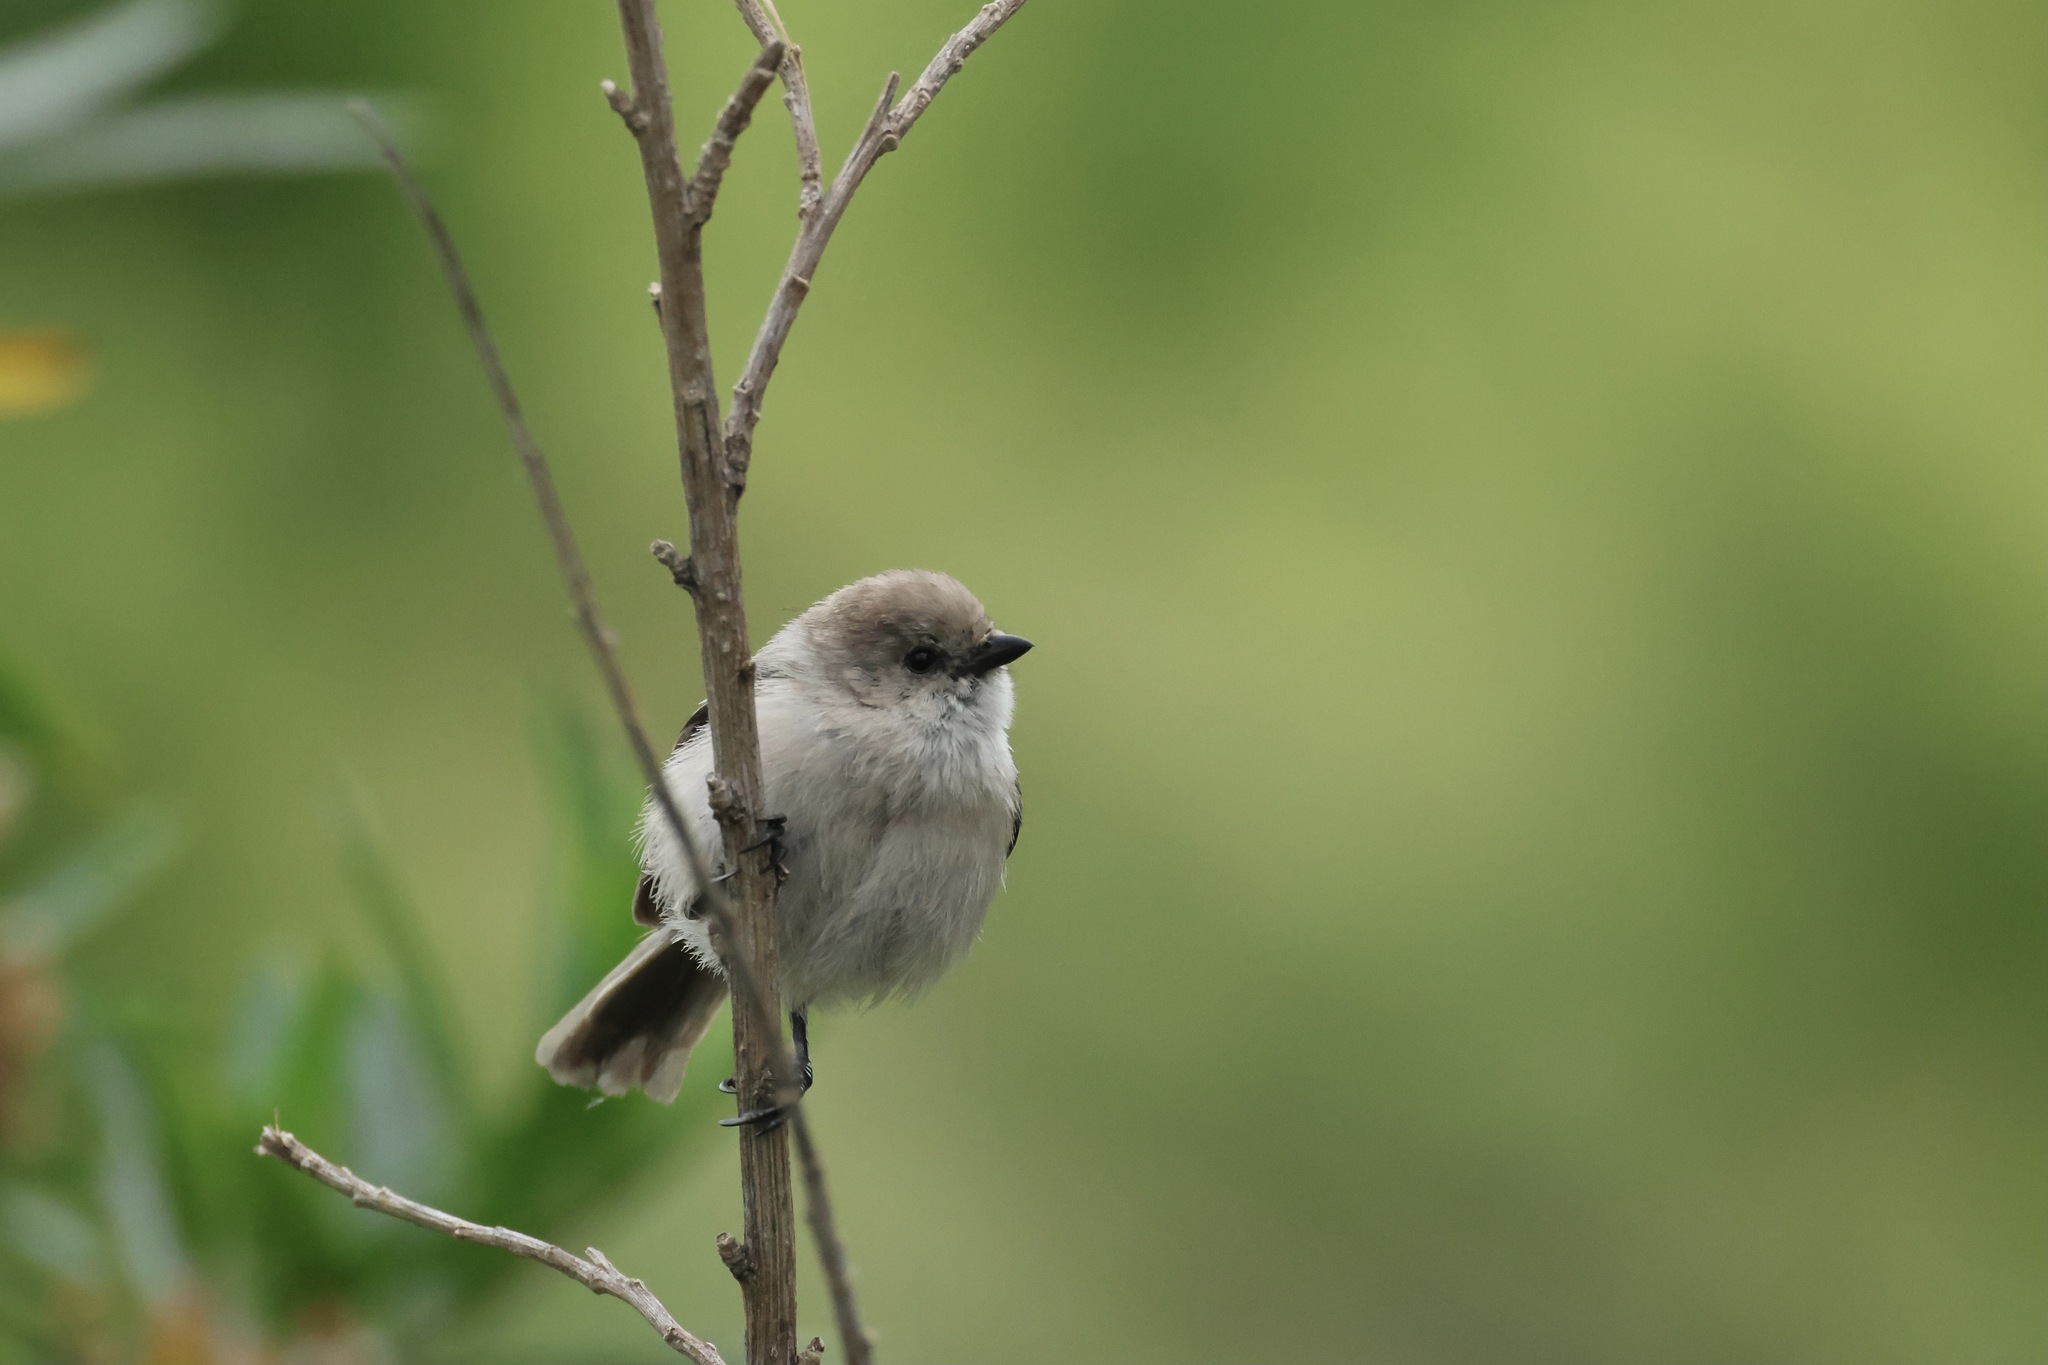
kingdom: Animalia
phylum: Chordata
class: Aves
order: Passeriformes
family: Aegithalidae
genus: Psaltriparus
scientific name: Psaltriparus minimus
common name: American bushtit
